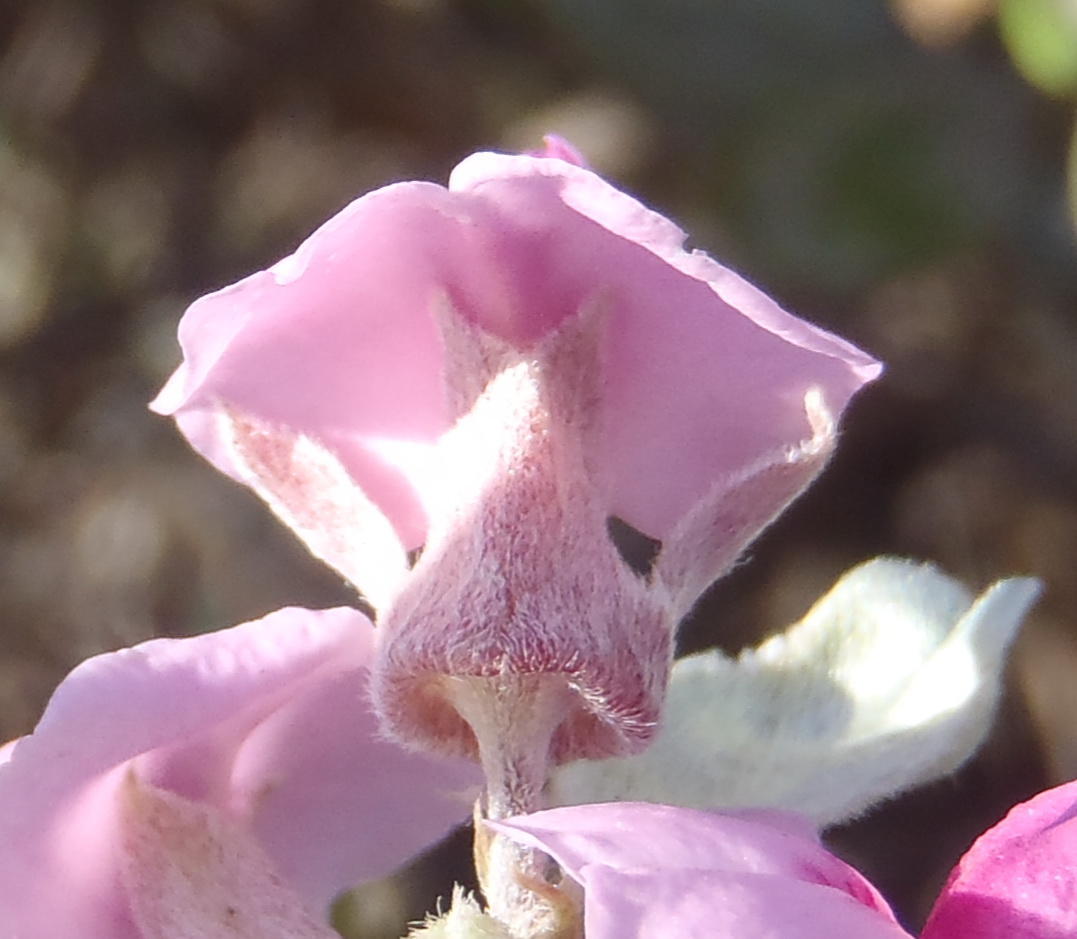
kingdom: Plantae
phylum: Tracheophyta
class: Magnoliopsida
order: Fabales
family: Fabaceae
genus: Podalyria
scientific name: Podalyria sericea
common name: Silver podalyria
